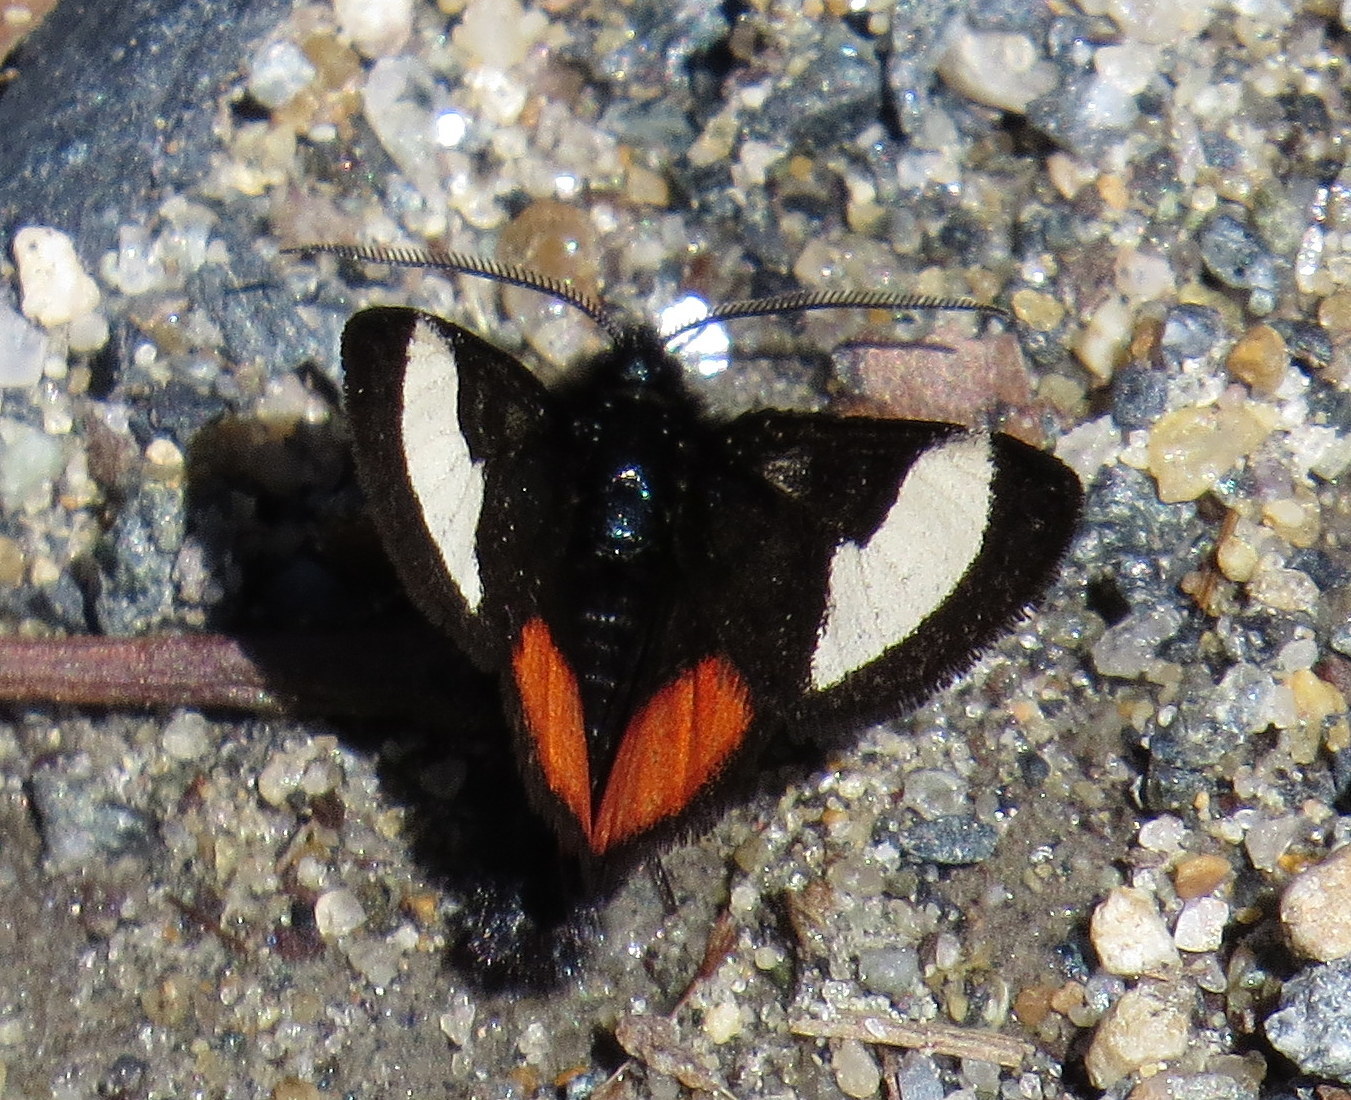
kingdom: Animalia
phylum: Arthropoda
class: Insecta
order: Lepidoptera
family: Noctuidae
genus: Psychomorpha
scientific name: Psychomorpha epimenis
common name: Grapevine epimenis moth
